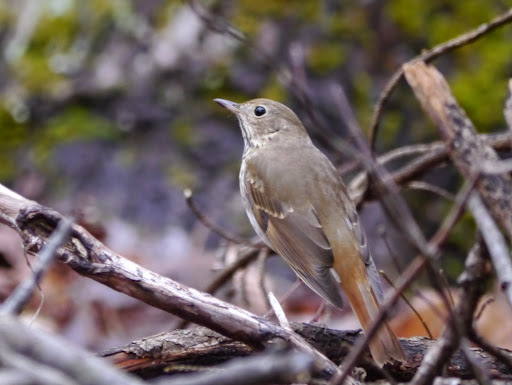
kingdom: Animalia
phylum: Chordata
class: Aves
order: Passeriformes
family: Turdidae
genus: Catharus
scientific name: Catharus guttatus
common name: Hermit thrush
